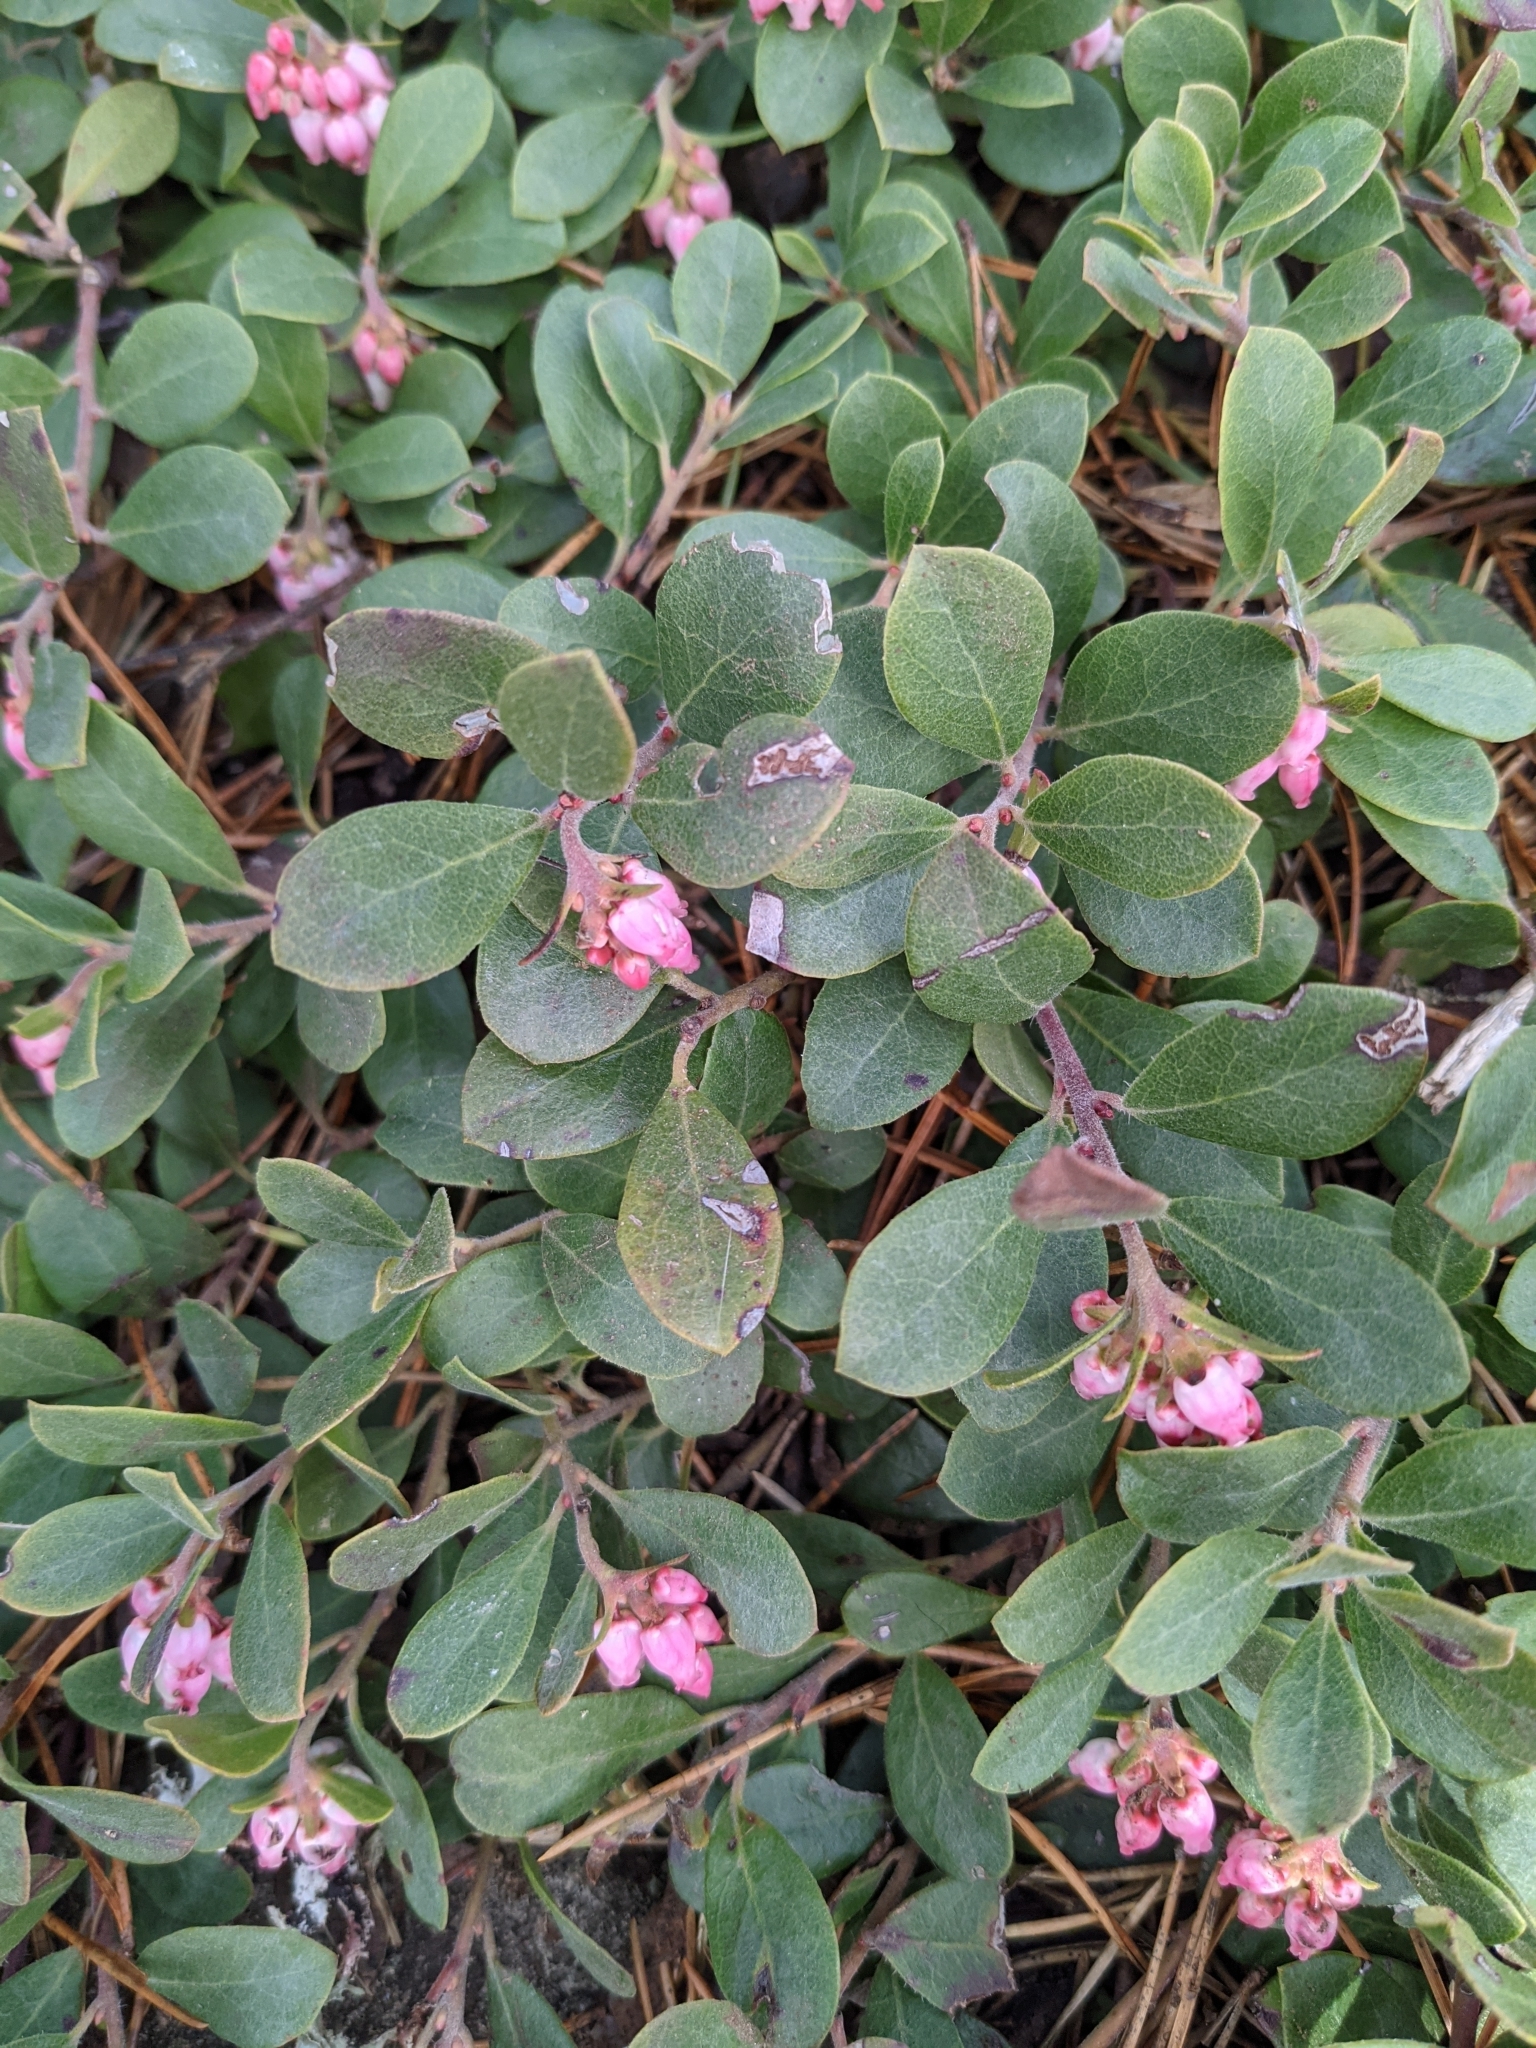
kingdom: Plantae
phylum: Tracheophyta
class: Magnoliopsida
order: Ericales
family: Ericaceae
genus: Arctostaphylos
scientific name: Arctostaphylos uva-ursi
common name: Bearberry
